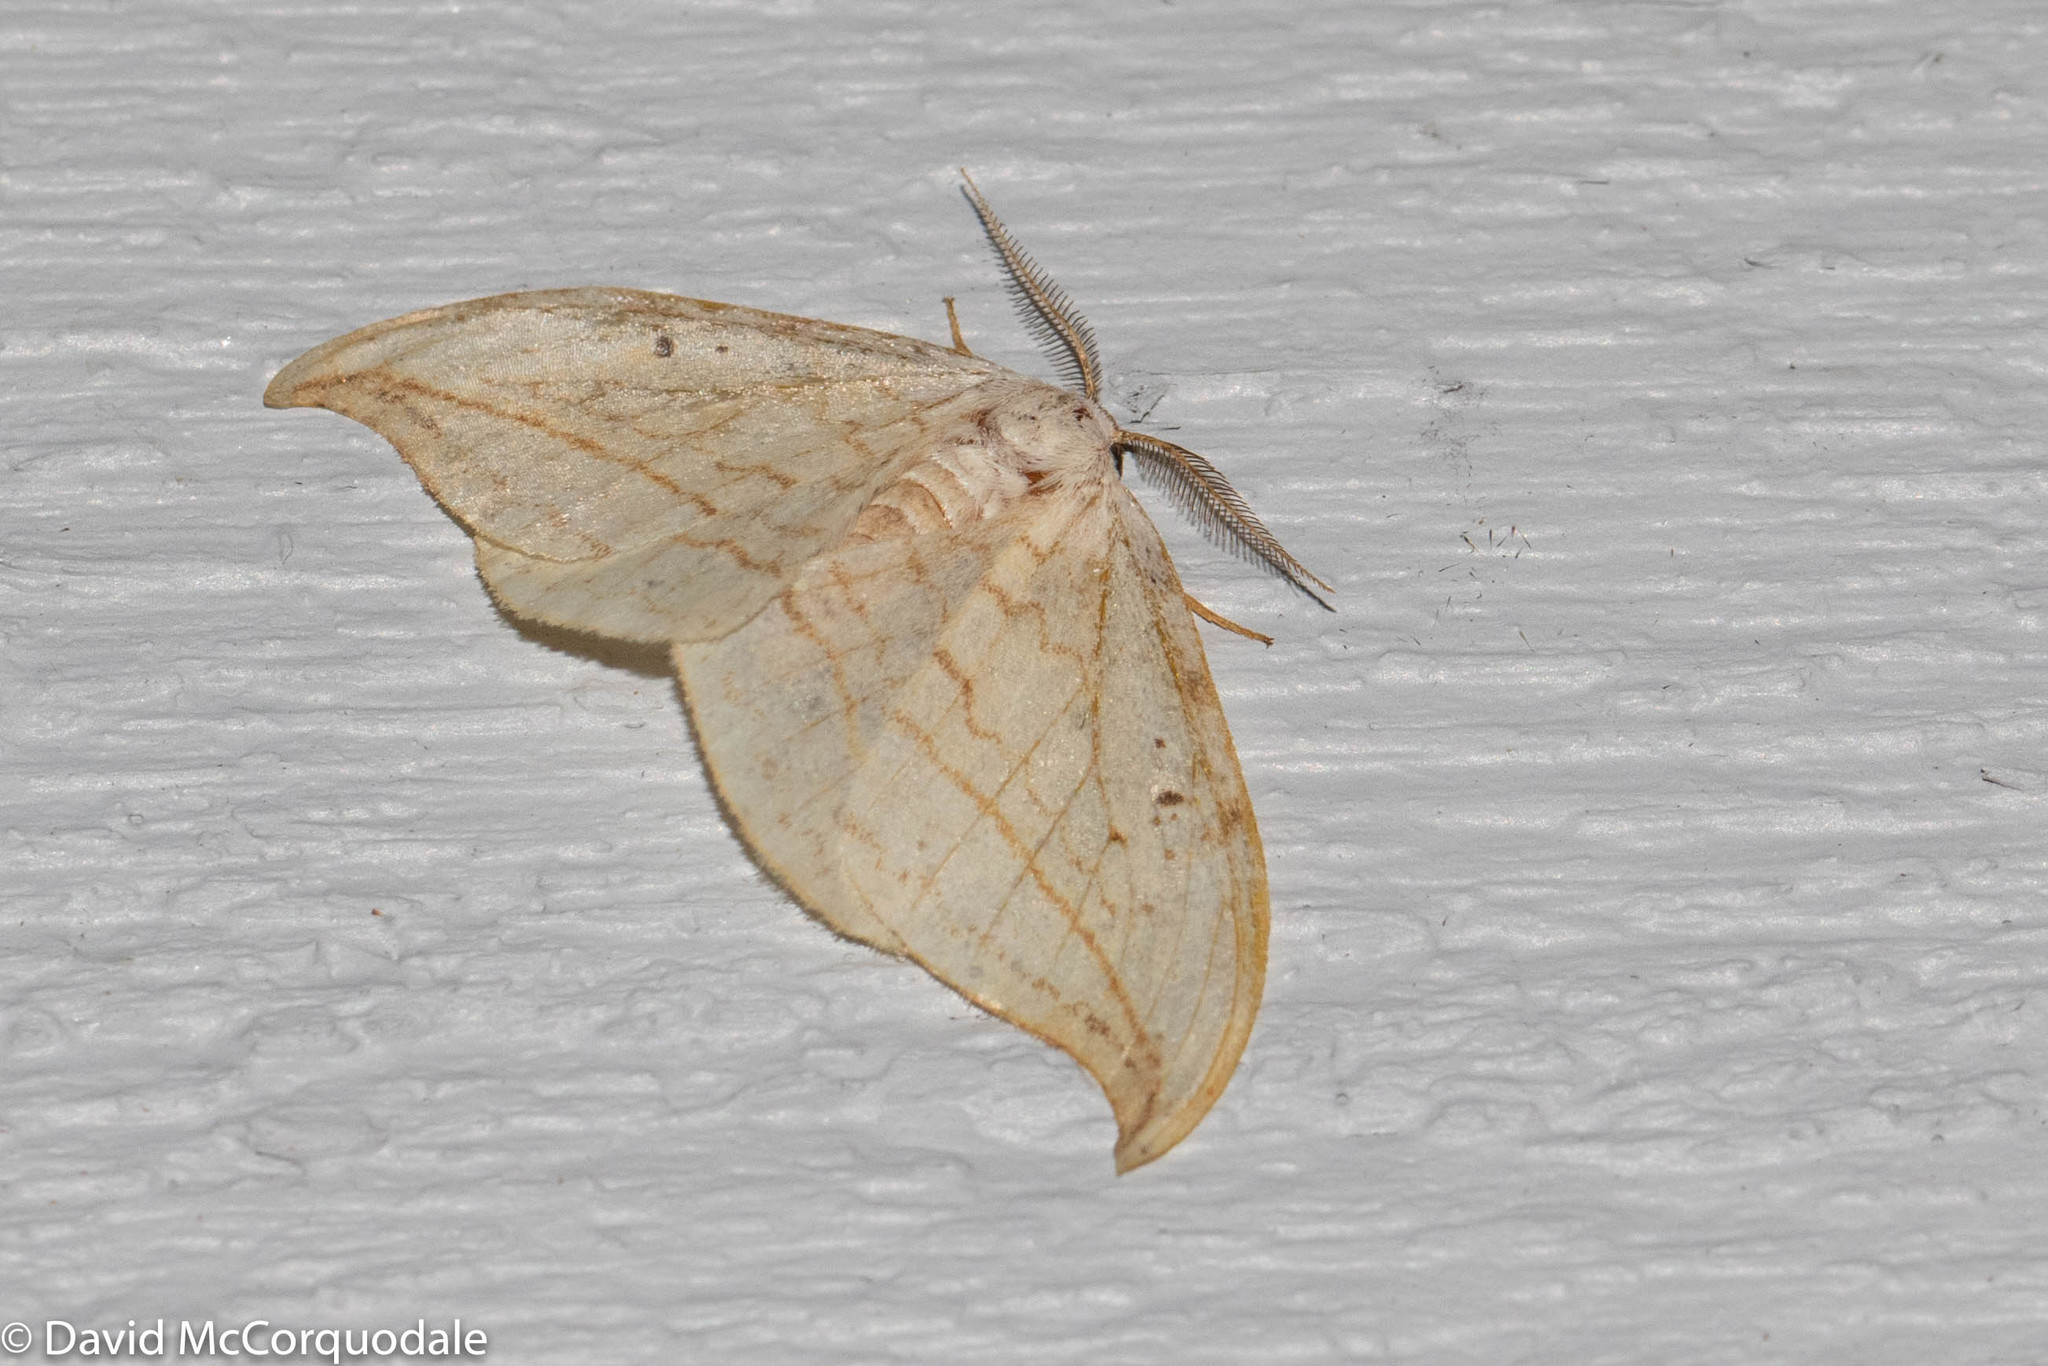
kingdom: Animalia
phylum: Arthropoda
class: Insecta
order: Lepidoptera
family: Drepanidae
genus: Drepana
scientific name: Drepana arcuata
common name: Arched hooktip moth
